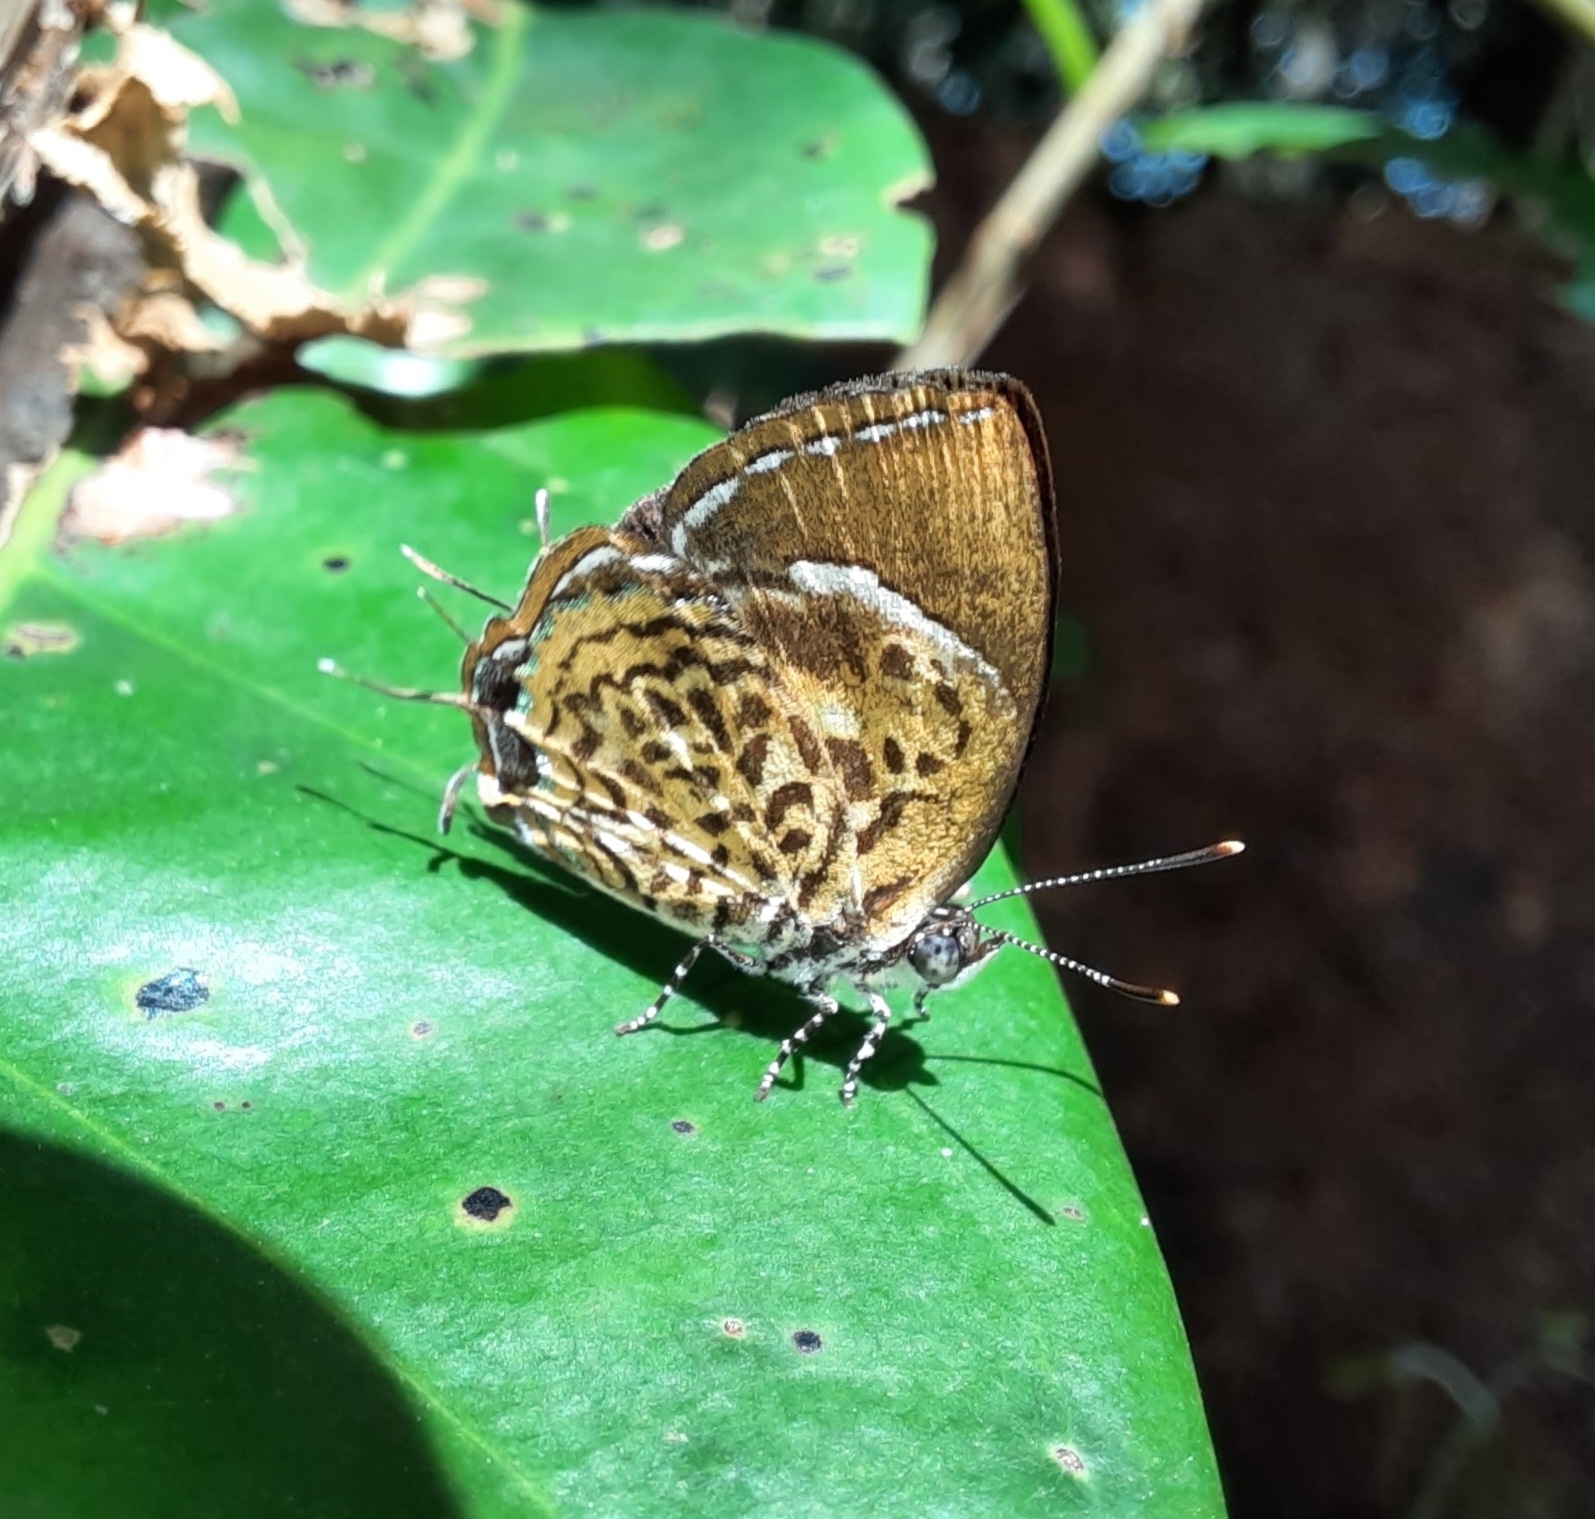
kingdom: Animalia
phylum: Arthropoda
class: Insecta
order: Lepidoptera
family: Lycaenidae
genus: Rathinda
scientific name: Rathinda amor
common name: Monkey puzzle
